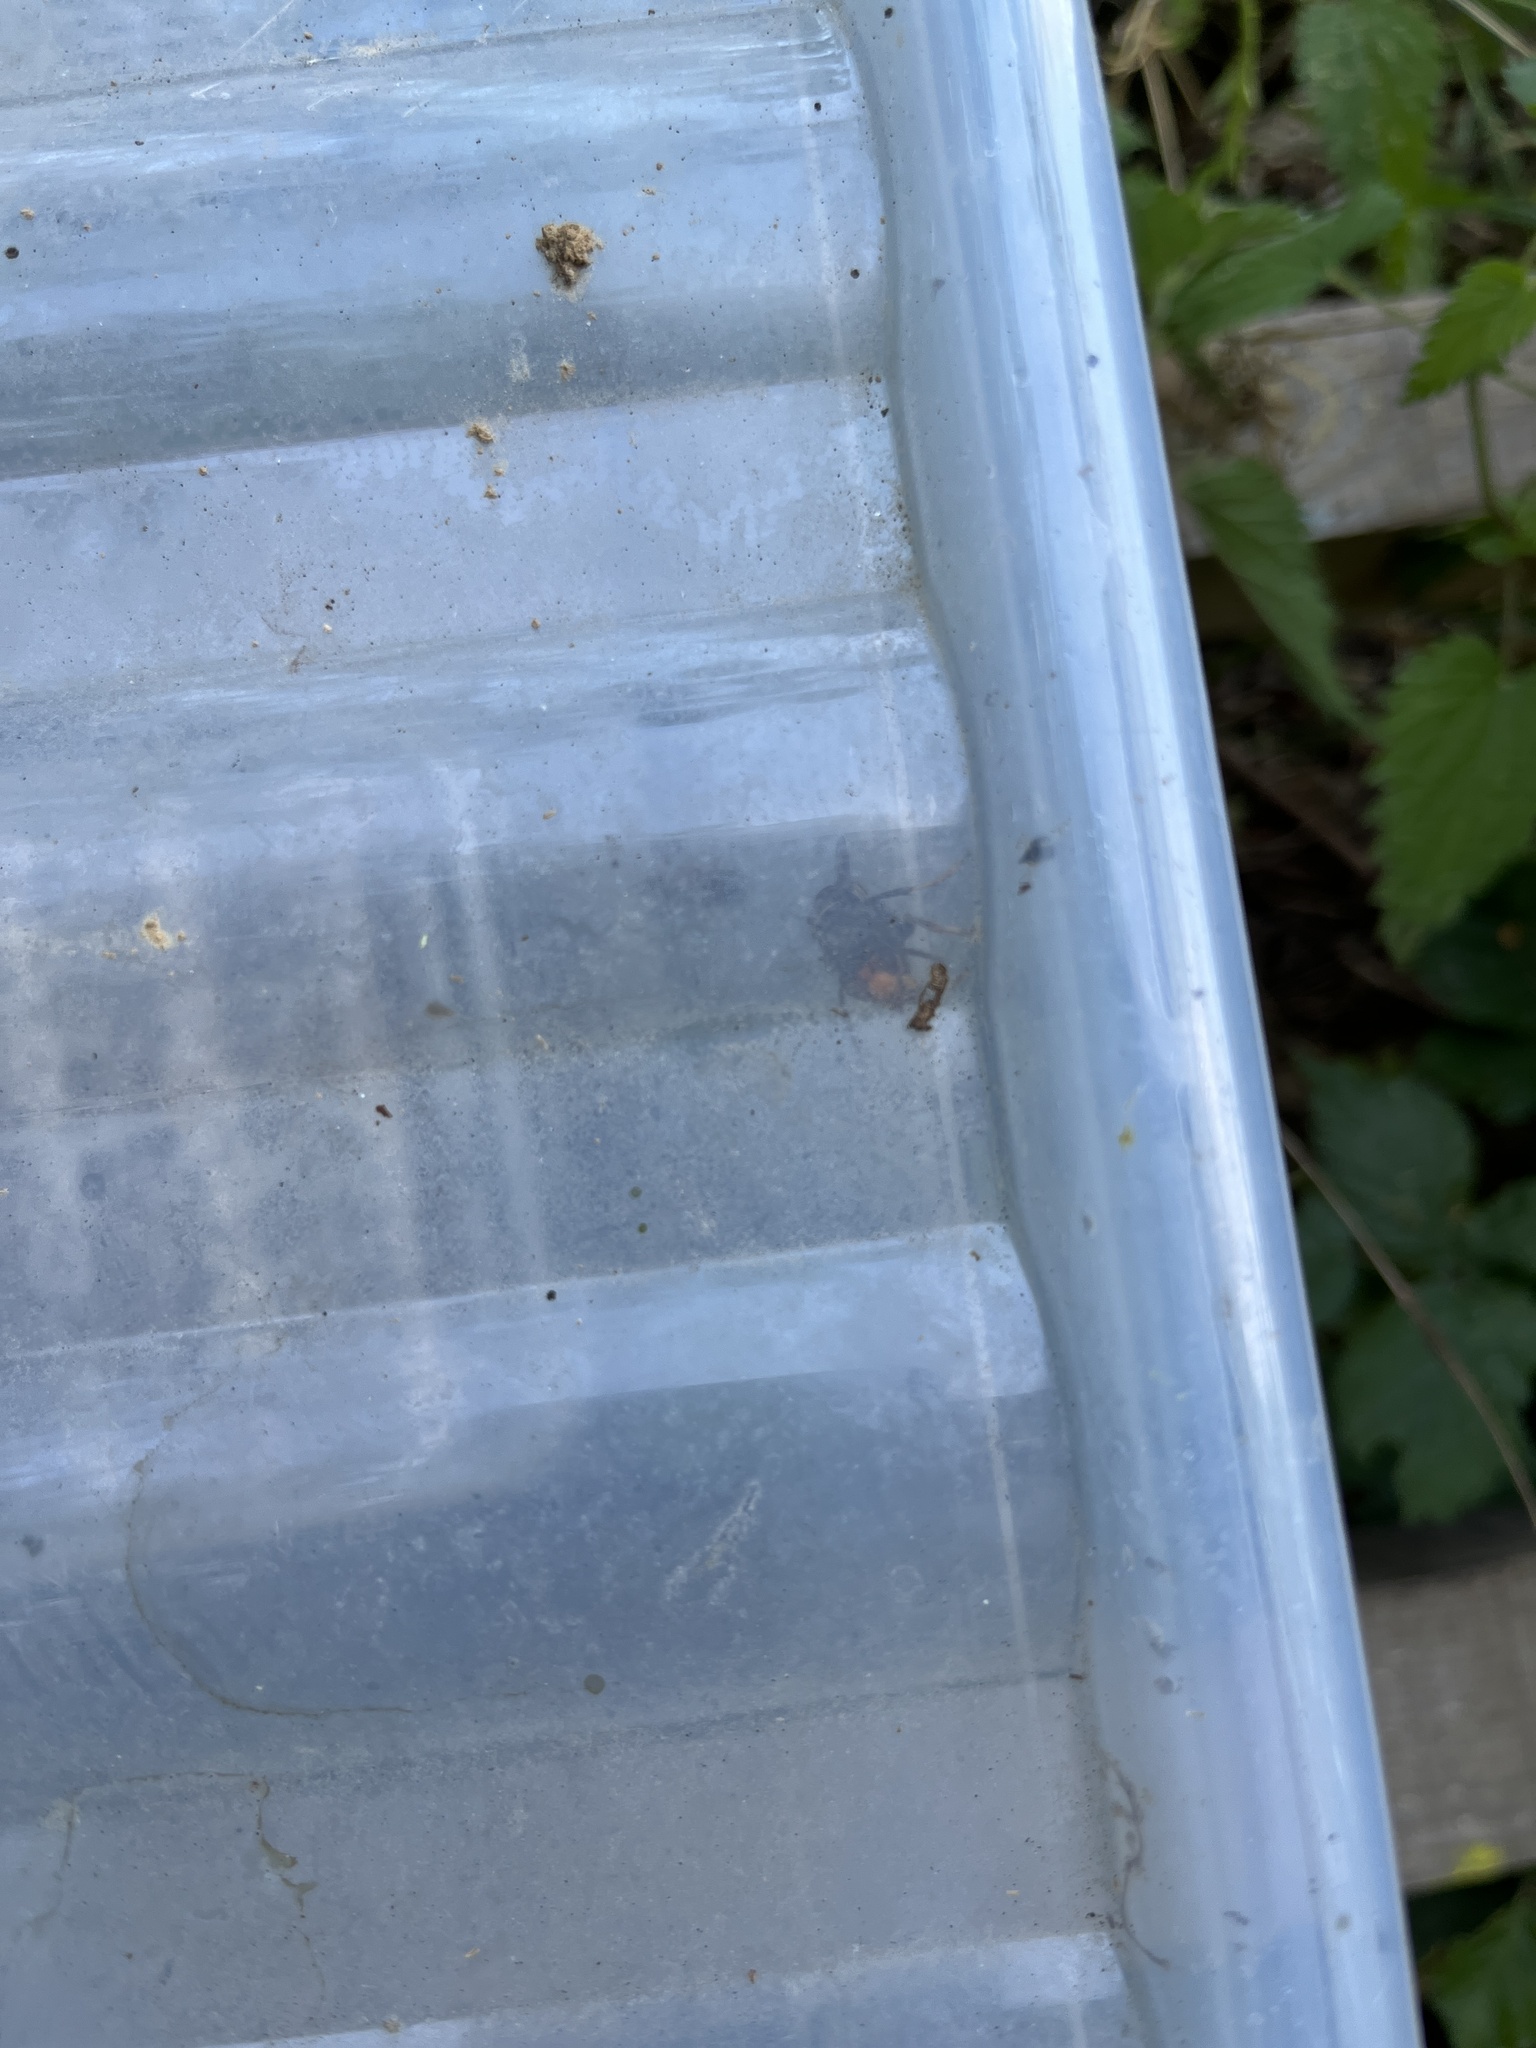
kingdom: Animalia
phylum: Arthropoda
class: Insecta
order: Hymenoptera
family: Vespidae
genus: Vespa
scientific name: Vespa velutina
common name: Asian hornet
